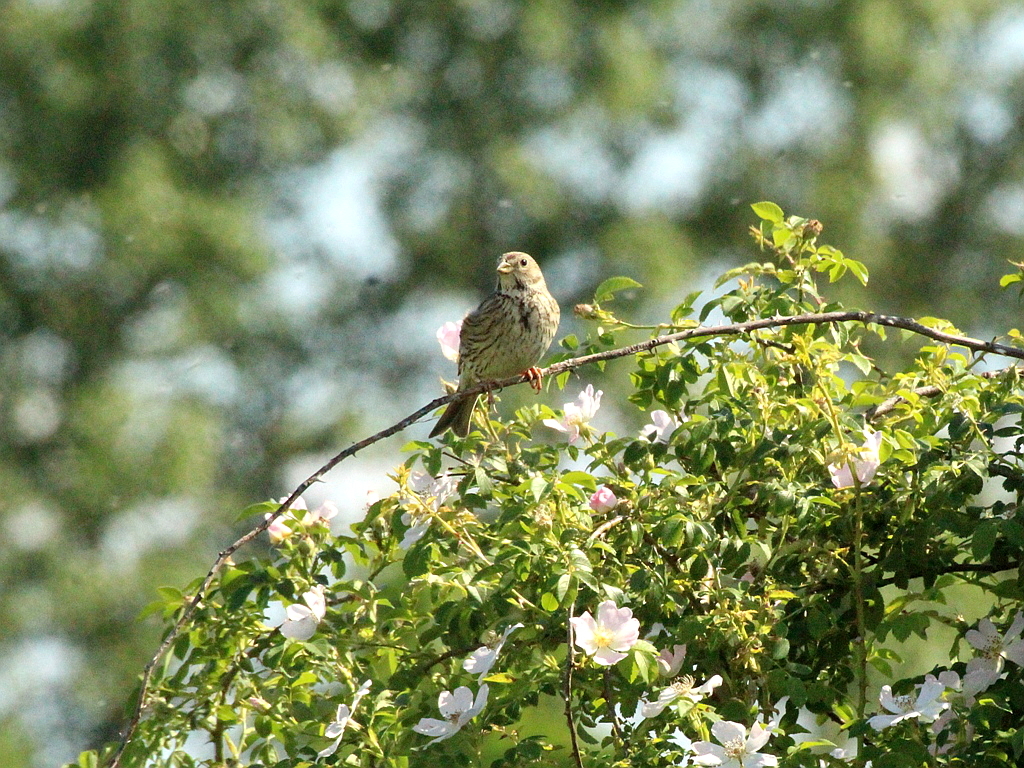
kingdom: Animalia
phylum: Chordata
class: Aves
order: Passeriformes
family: Emberizidae
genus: Emberiza
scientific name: Emberiza calandra
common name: Corn bunting
